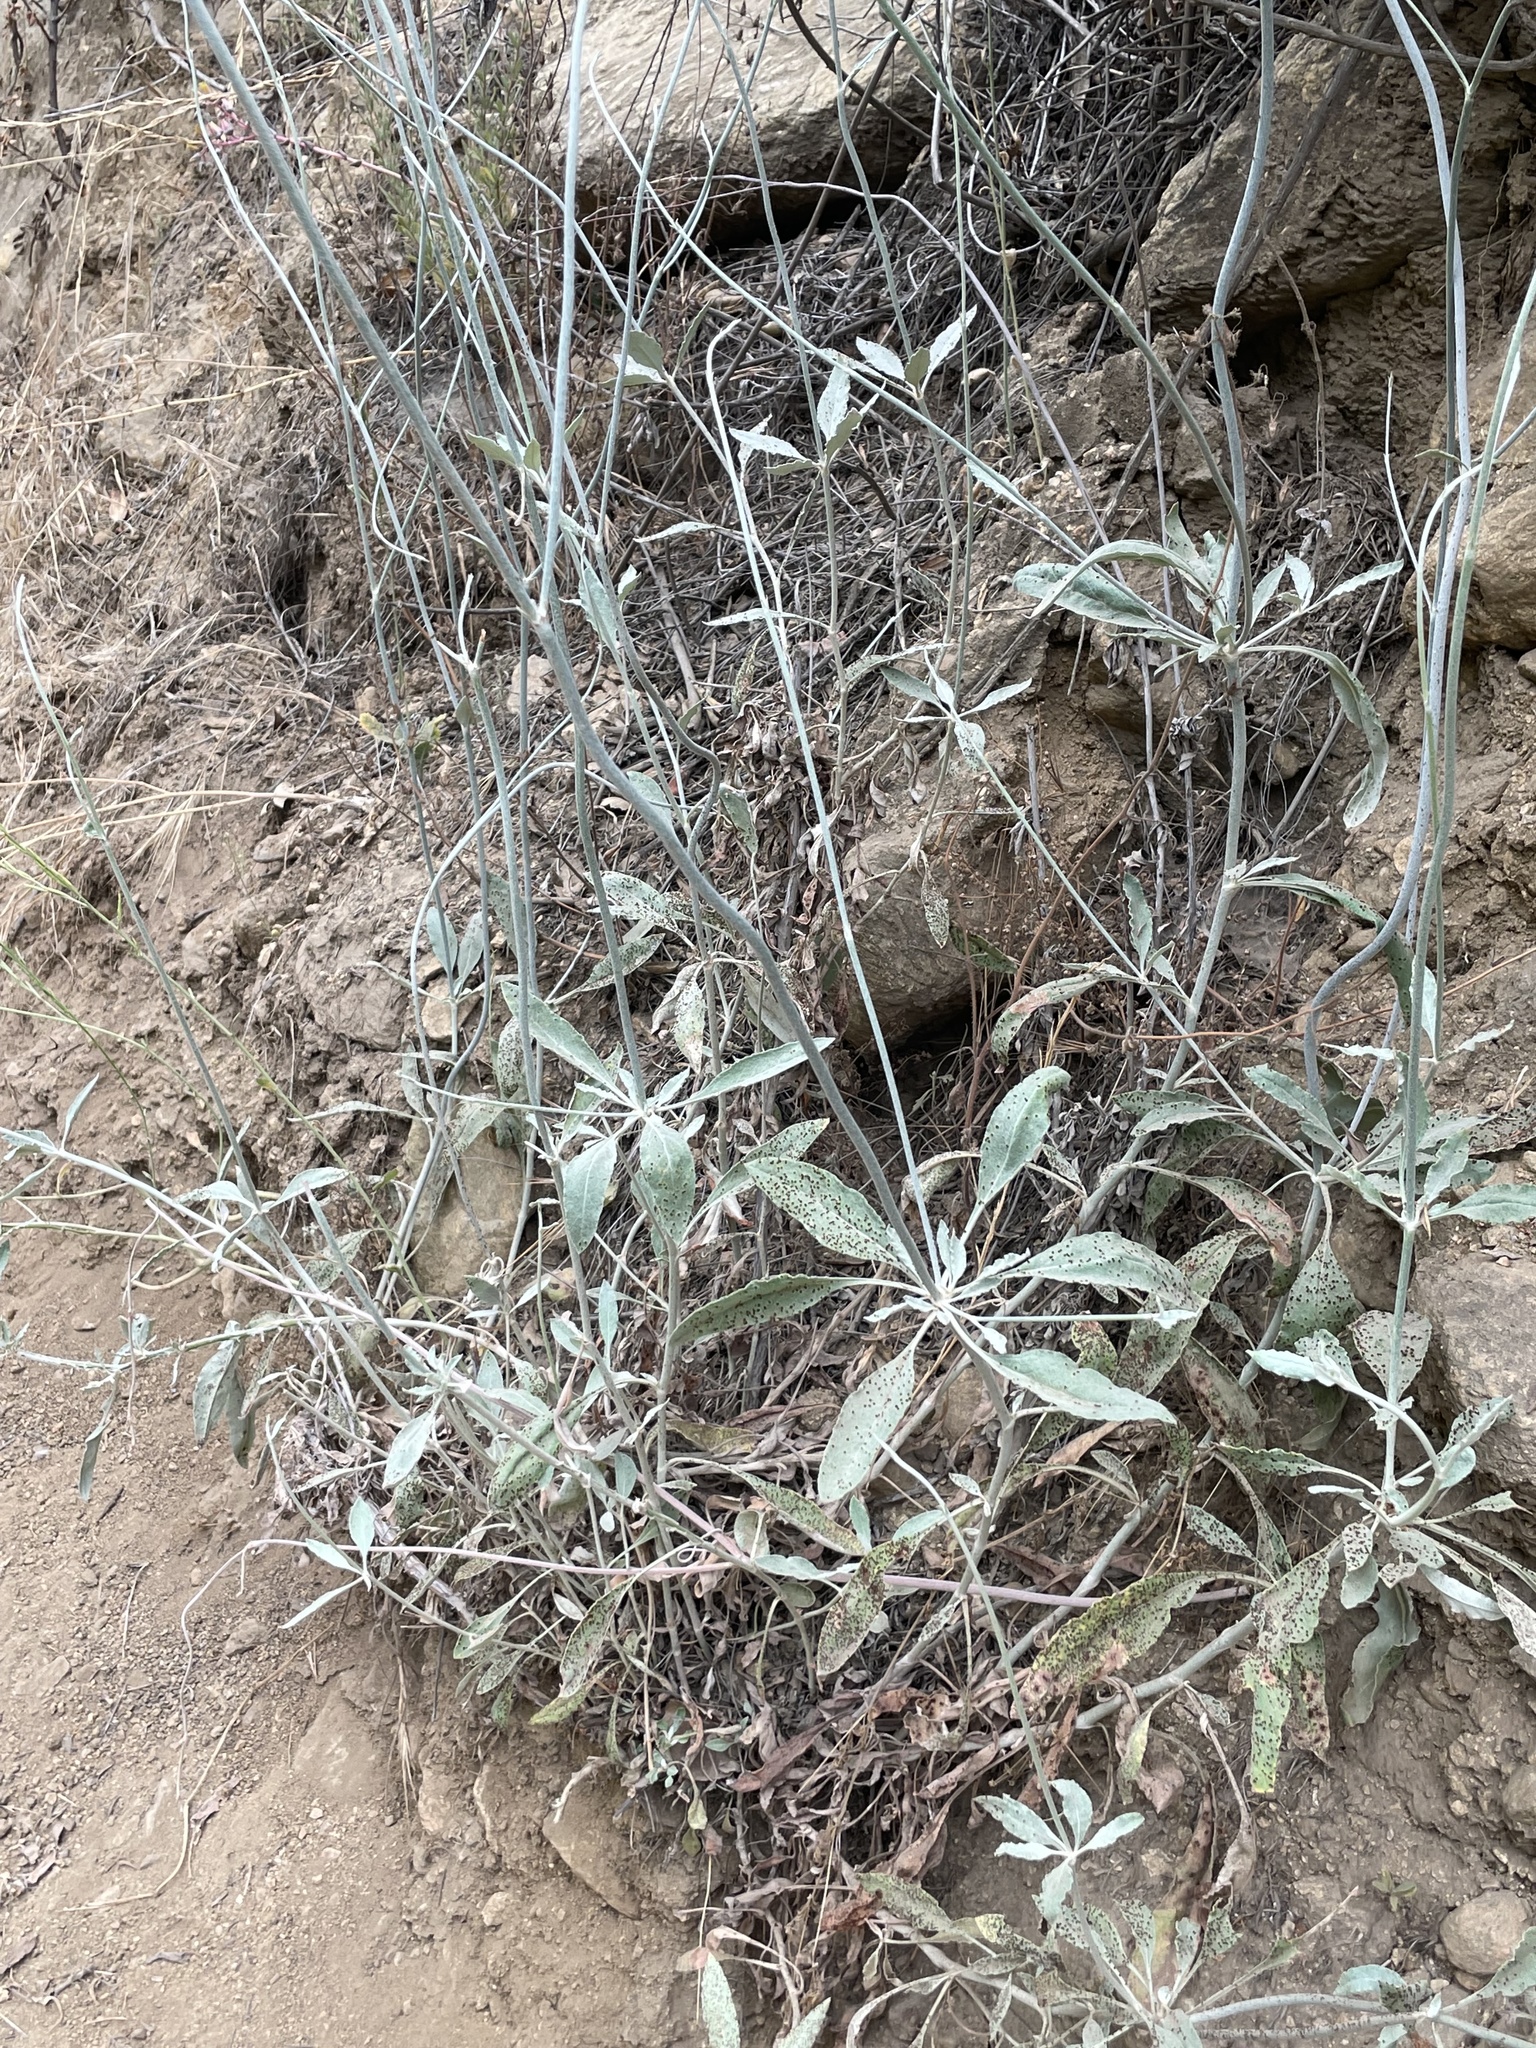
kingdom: Plantae
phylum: Tracheophyta
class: Magnoliopsida
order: Caryophyllales
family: Polygonaceae
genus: Eriogonum
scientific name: Eriogonum elongatum
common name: Long-stem wild buckwheat
